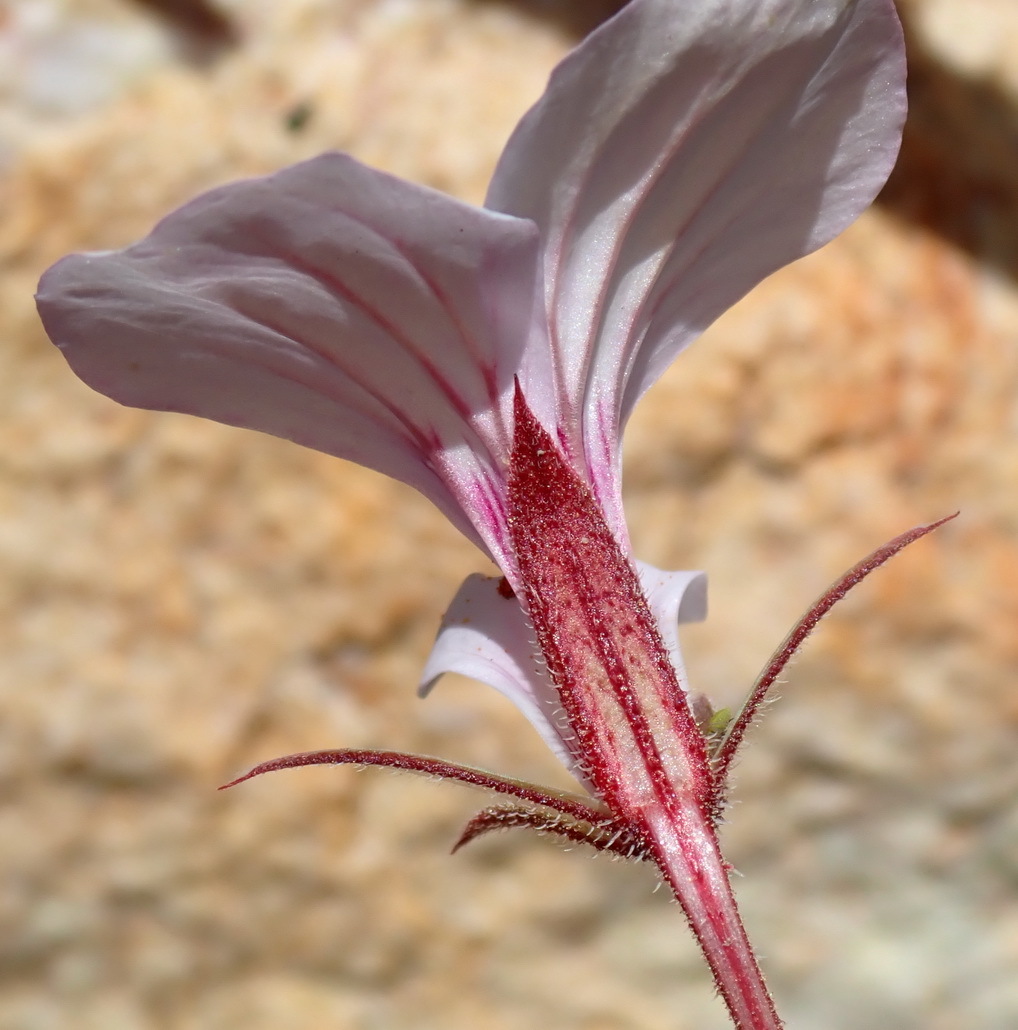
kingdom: Plantae
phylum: Tracheophyta
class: Magnoliopsida
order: Geraniales
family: Geraniaceae
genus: Pelargonium
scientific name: Pelargonium caucalifolium
